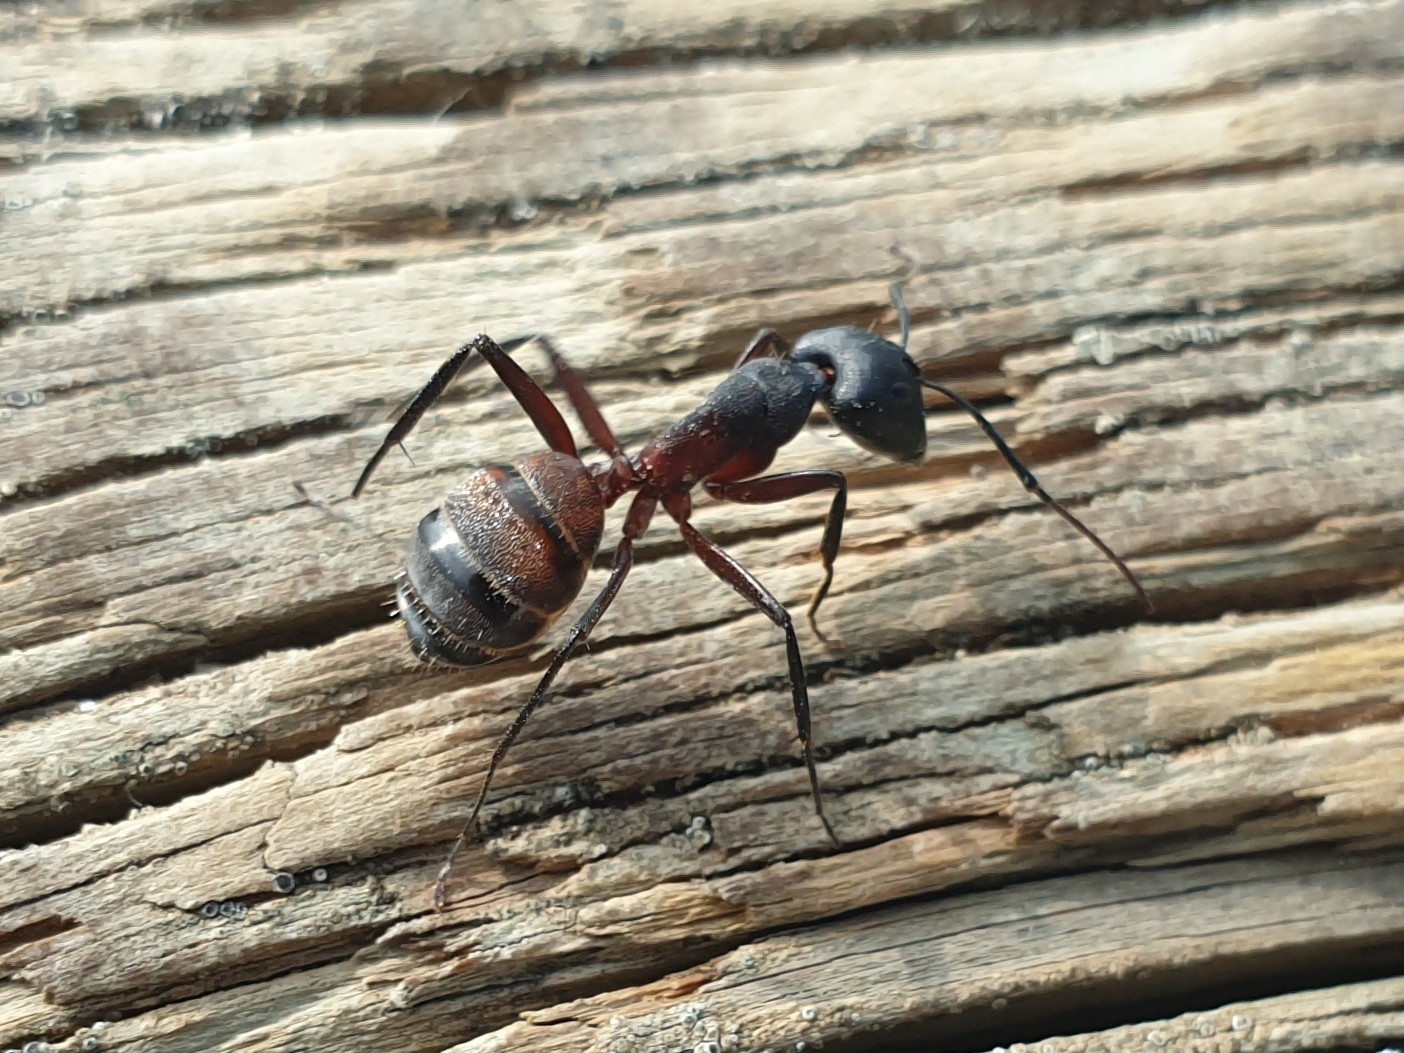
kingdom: Animalia
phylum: Arthropoda
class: Insecta
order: Hymenoptera
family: Formicidae
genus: Camponotus
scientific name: Camponotus cruentatus
